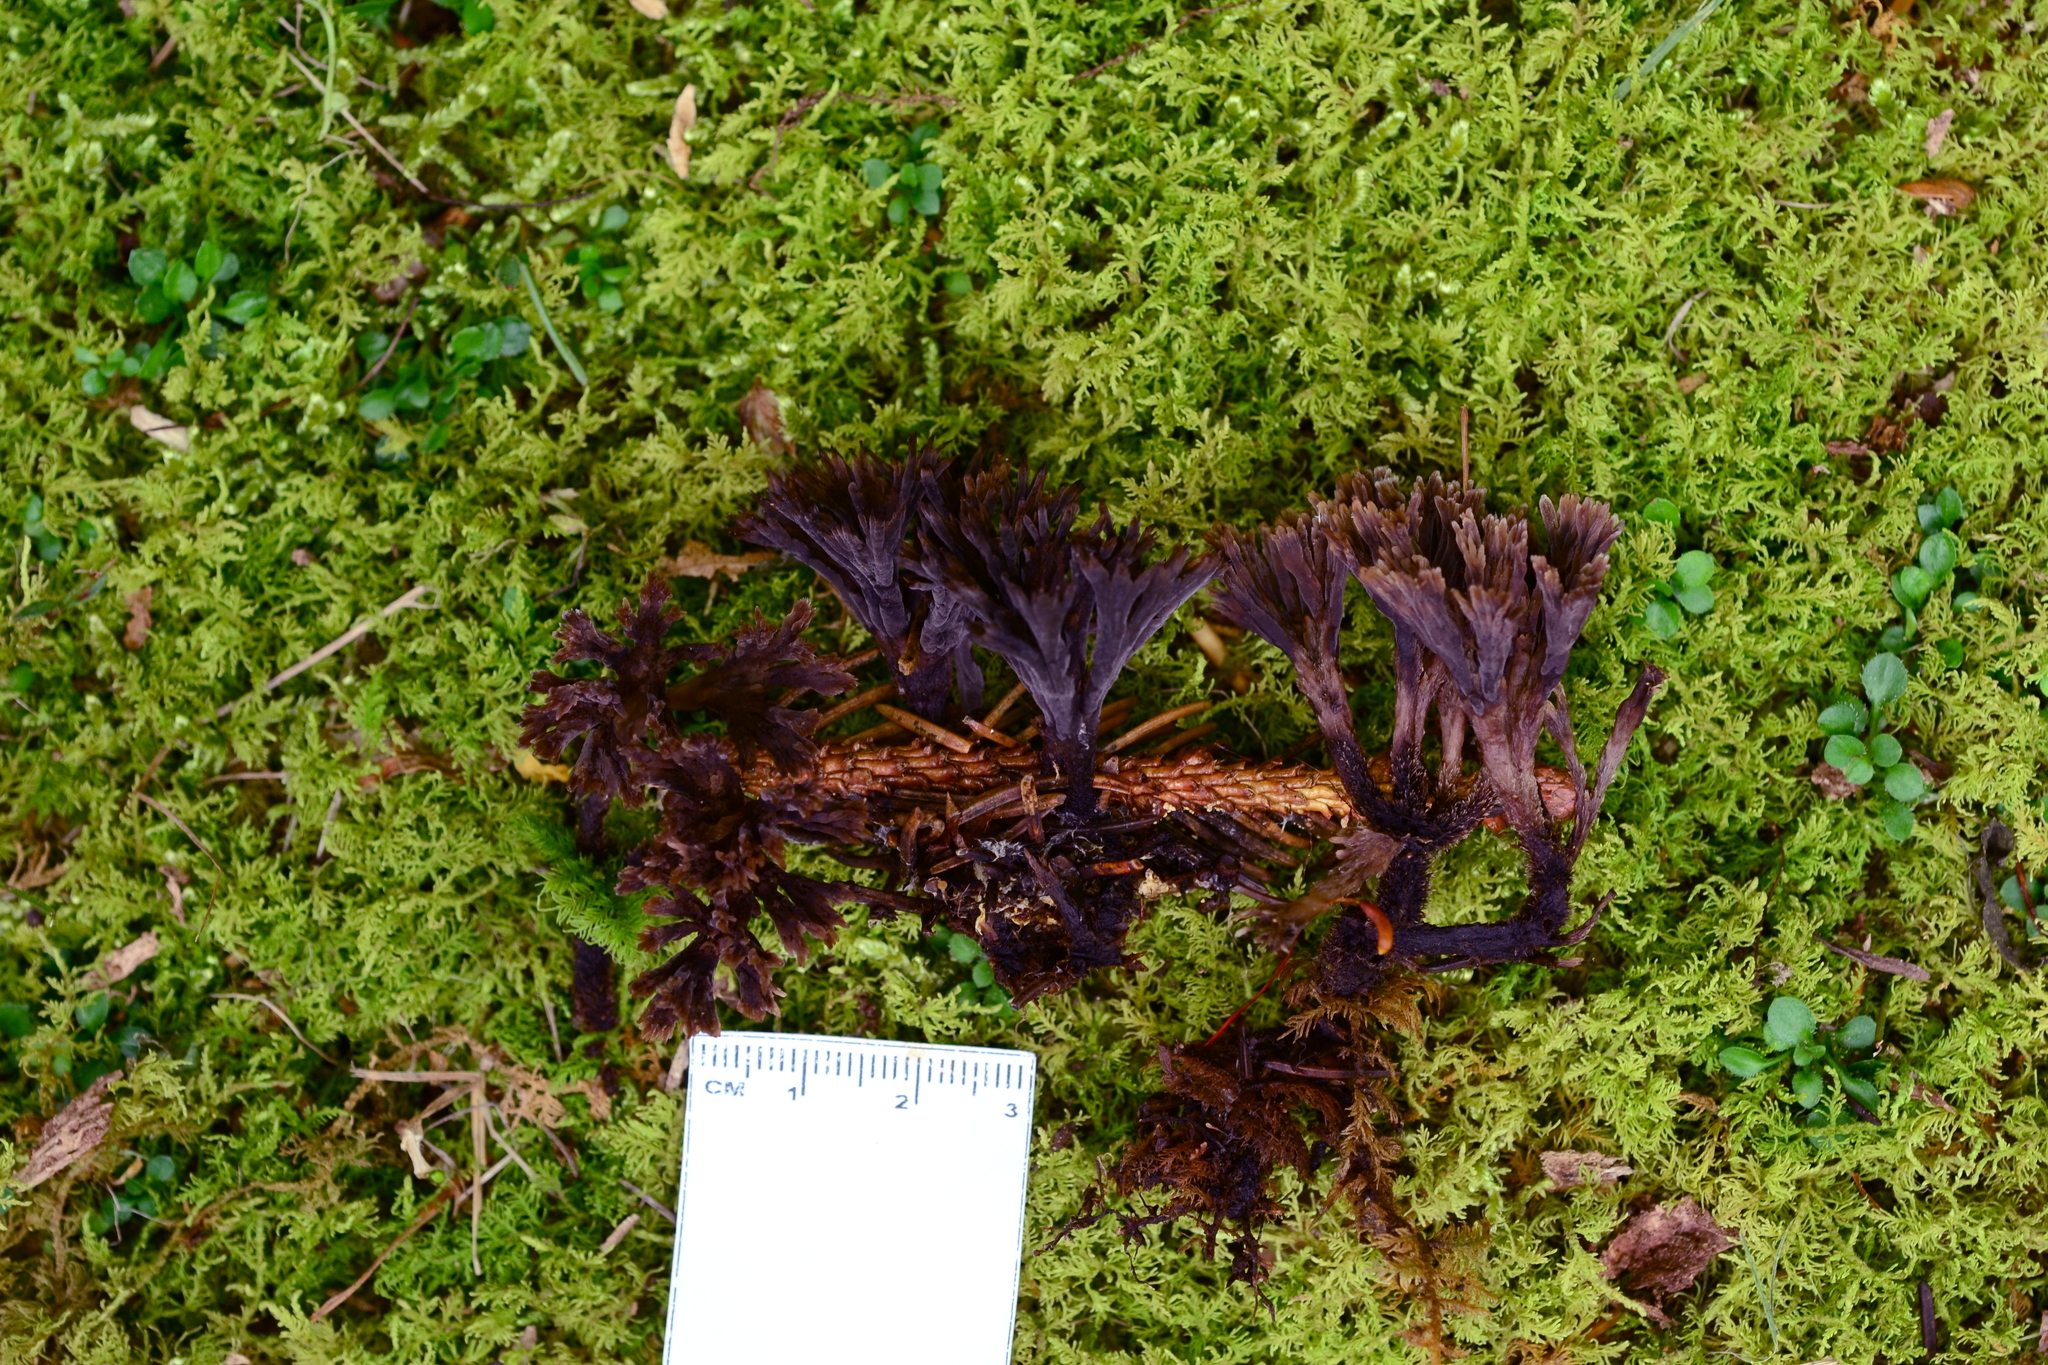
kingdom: Fungi
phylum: Basidiomycota
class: Agaricomycetes
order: Thelephorales
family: Thelephoraceae
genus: Thelephora
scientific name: Thelephora scissilis
